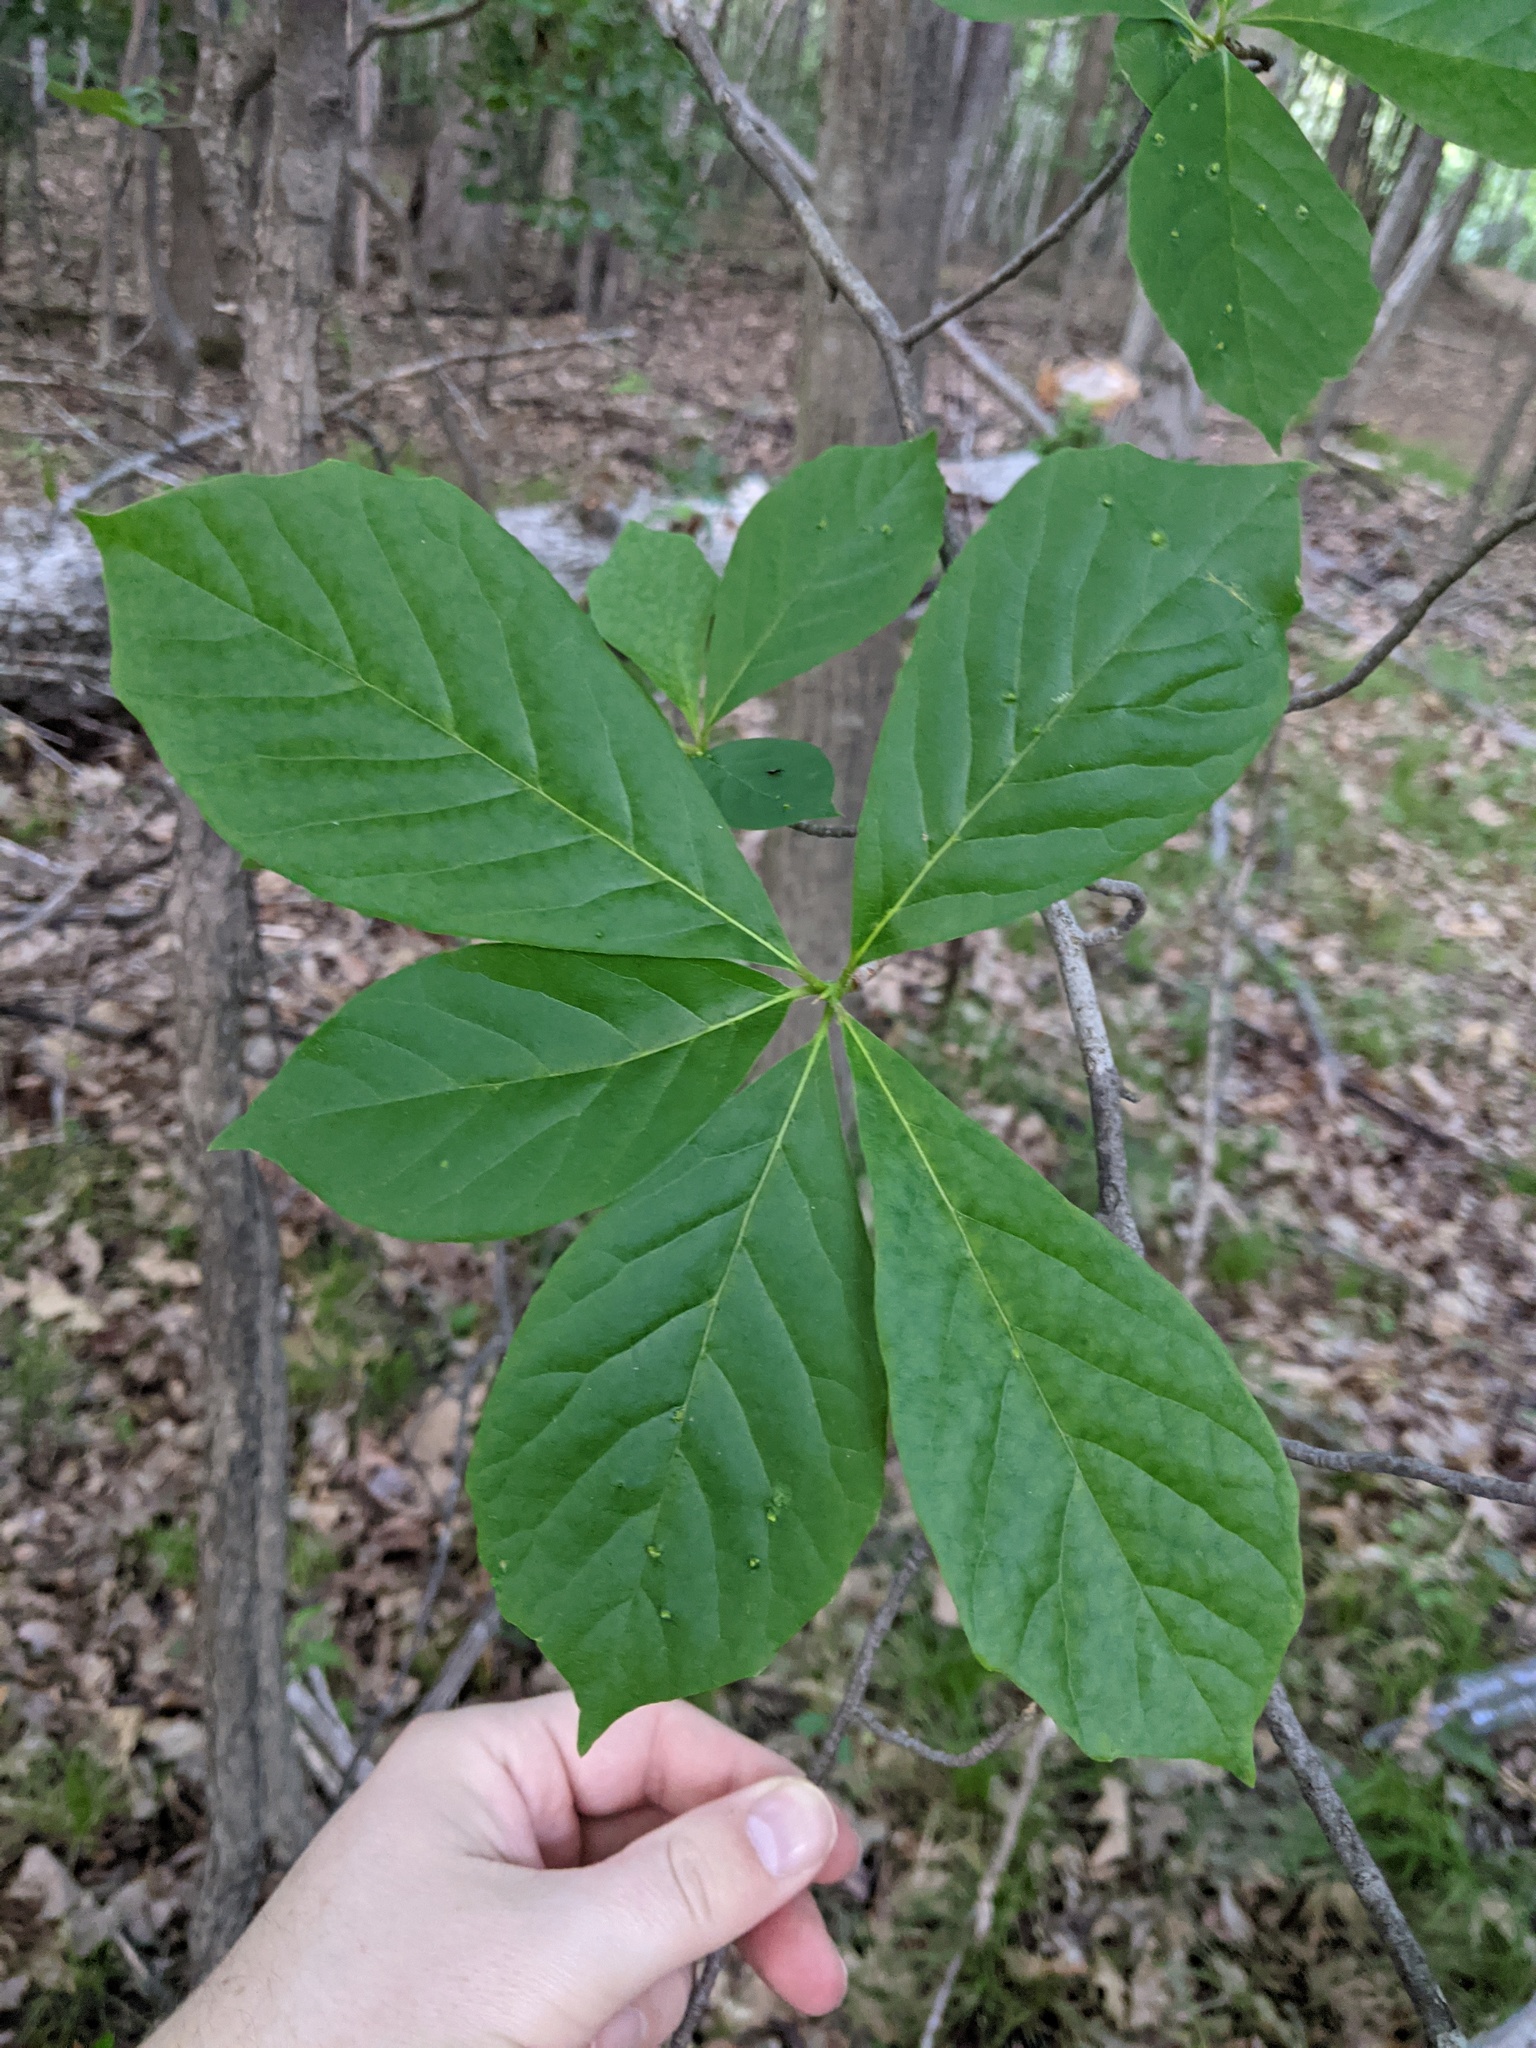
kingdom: Plantae
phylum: Tracheophyta
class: Magnoliopsida
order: Cornales
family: Nyssaceae
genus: Nyssa
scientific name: Nyssa sylvatica
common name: Black tupelo
